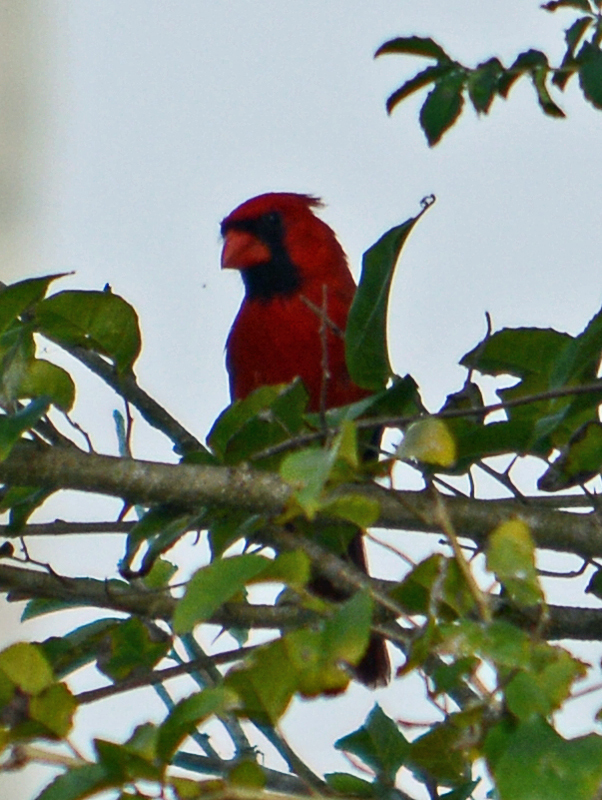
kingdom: Animalia
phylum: Chordata
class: Aves
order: Passeriformes
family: Cardinalidae
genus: Cardinalis
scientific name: Cardinalis cardinalis
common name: Northern cardinal
